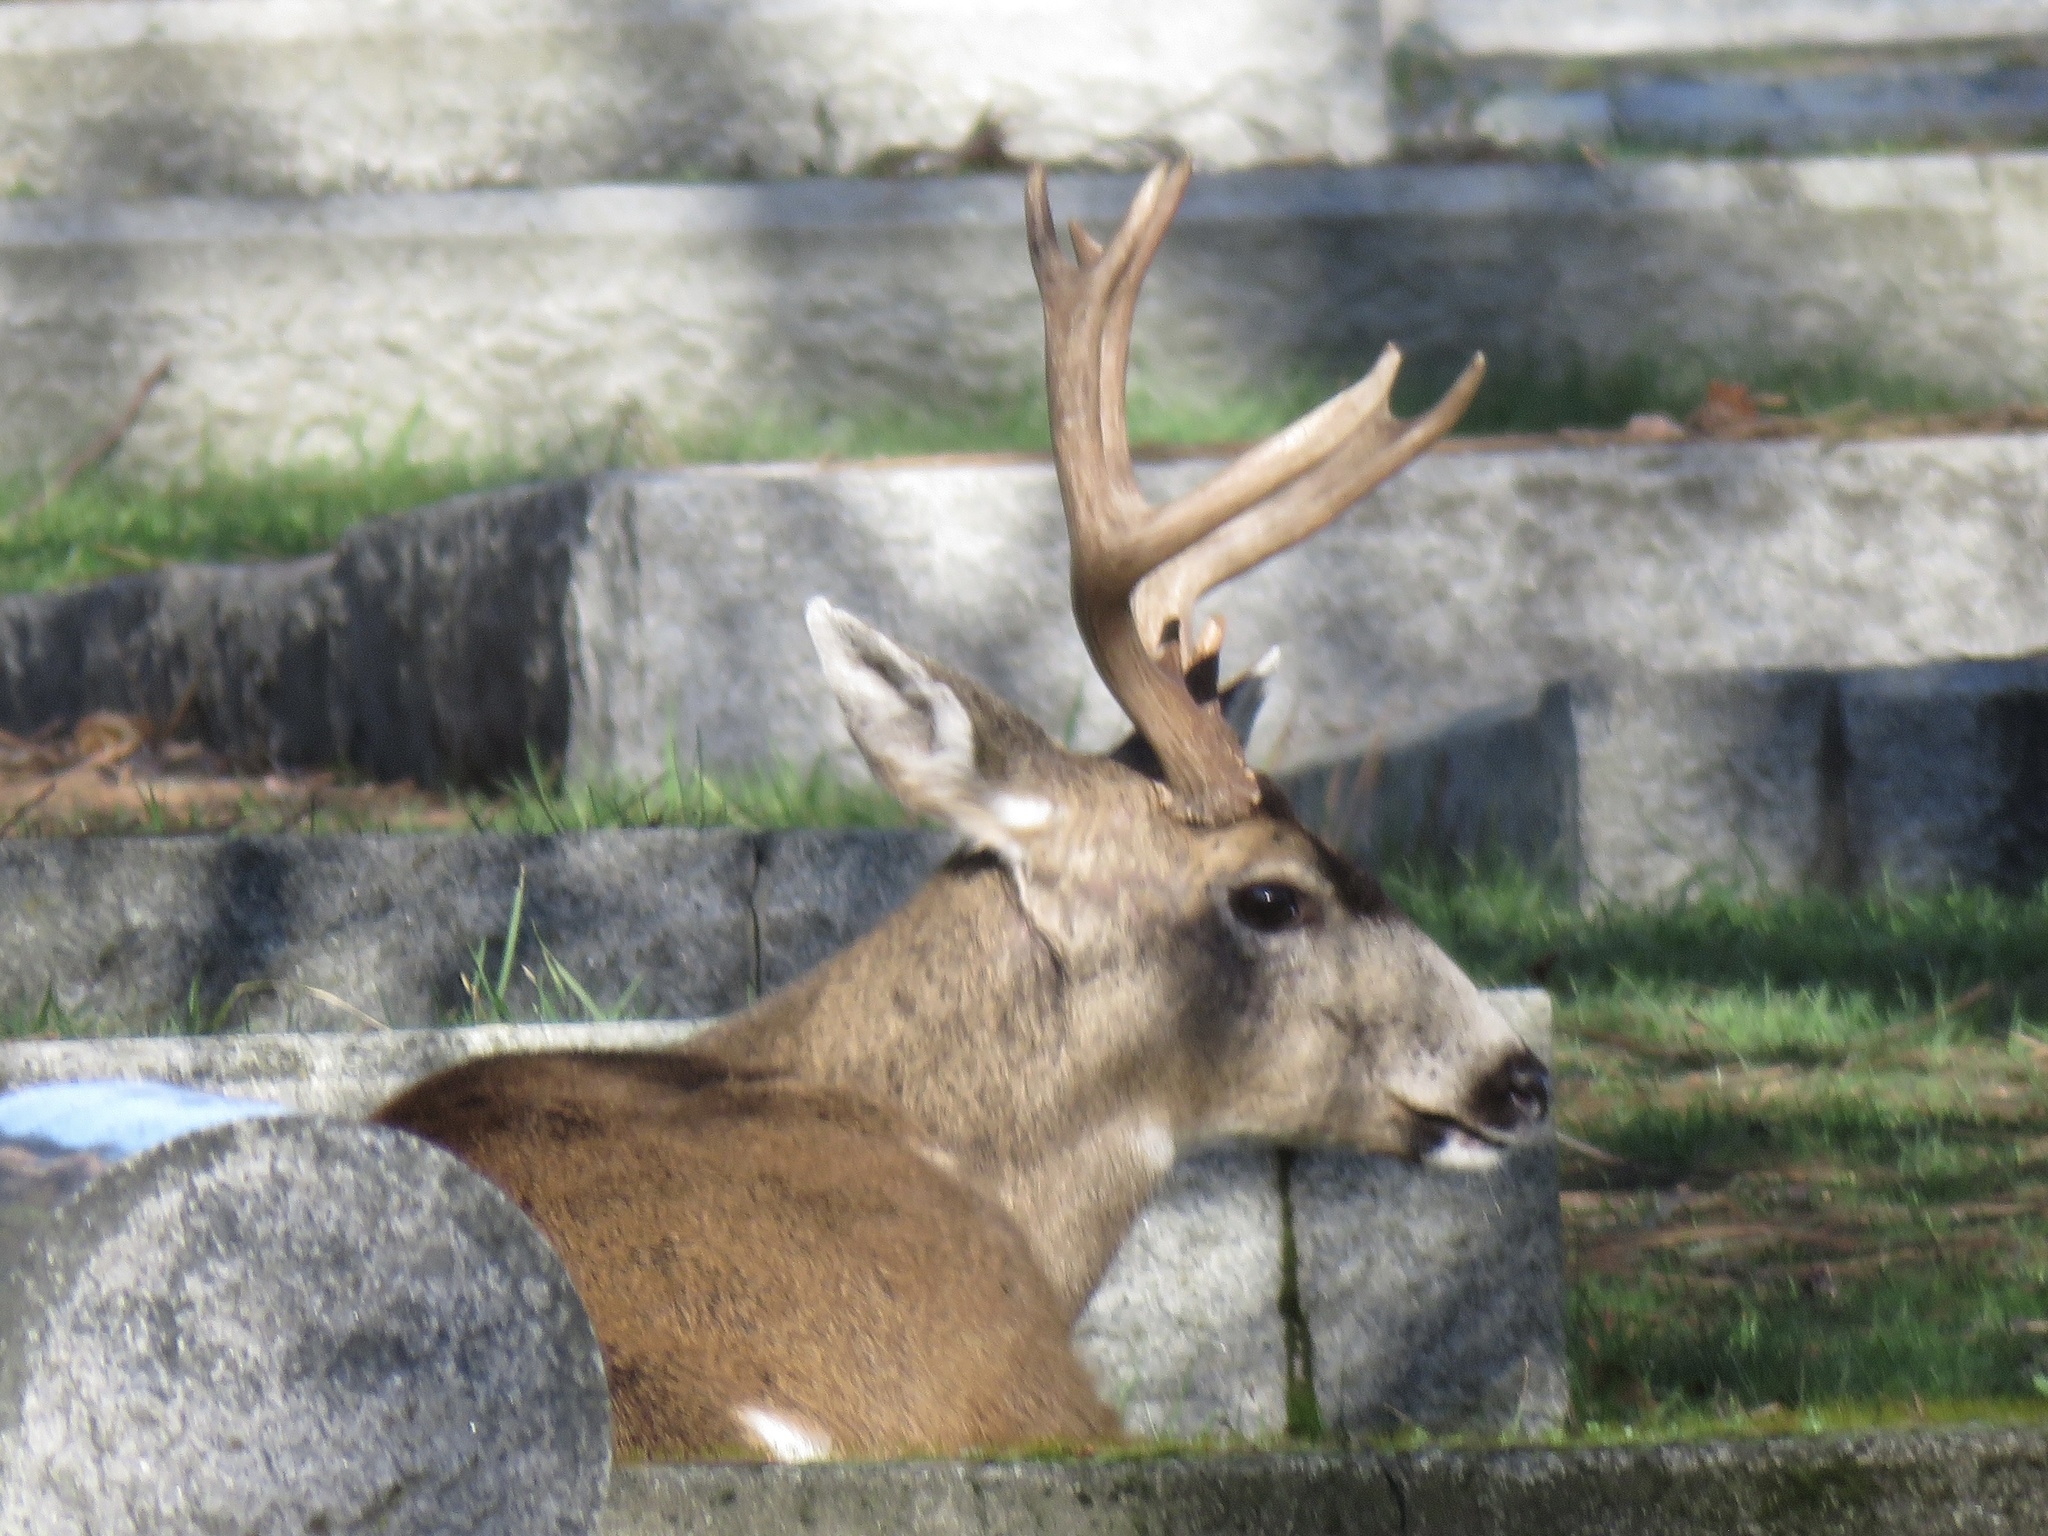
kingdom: Animalia
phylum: Chordata
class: Mammalia
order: Artiodactyla
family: Cervidae
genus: Odocoileus
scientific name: Odocoileus hemionus
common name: Mule deer
